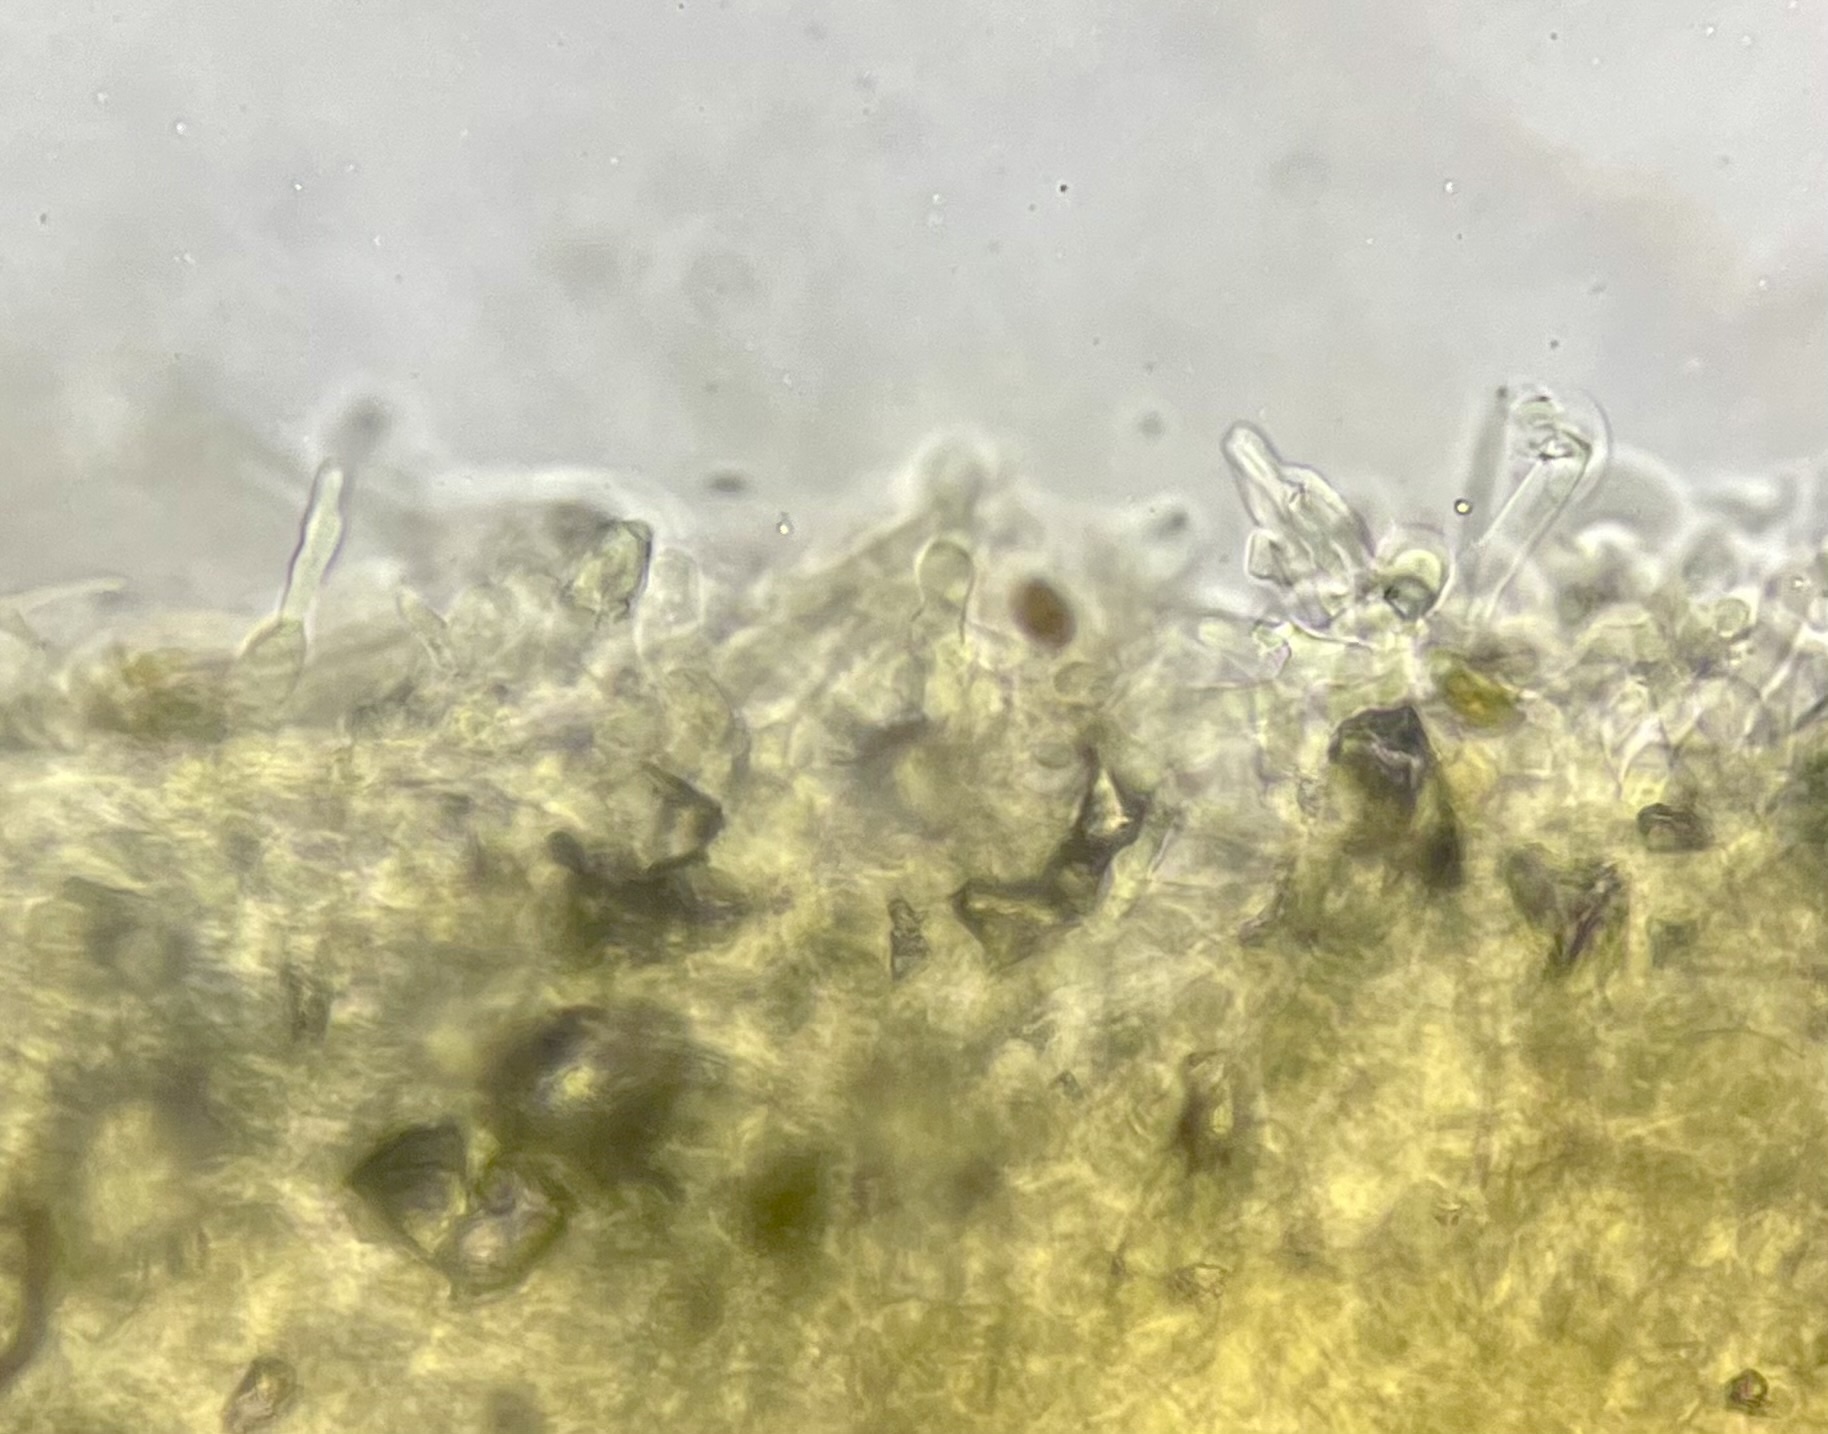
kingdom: Fungi
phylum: Basidiomycota
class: Agaricomycetes
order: Agaricales
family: Strophariaceae
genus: Stropharia
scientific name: Stropharia melanosperma
